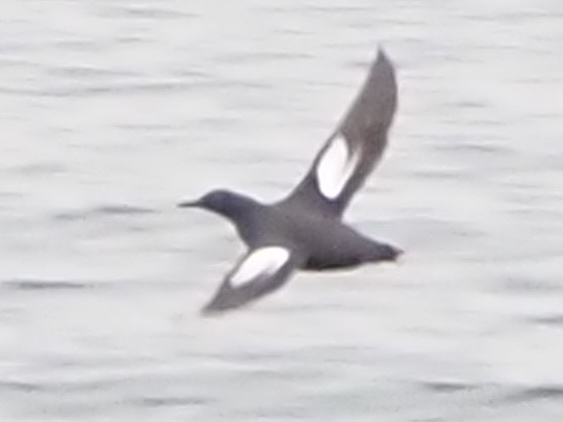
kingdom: Animalia
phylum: Chordata
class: Aves
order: Charadriiformes
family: Alcidae
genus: Cepphus
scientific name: Cepphus columba
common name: Pigeon guillemot
